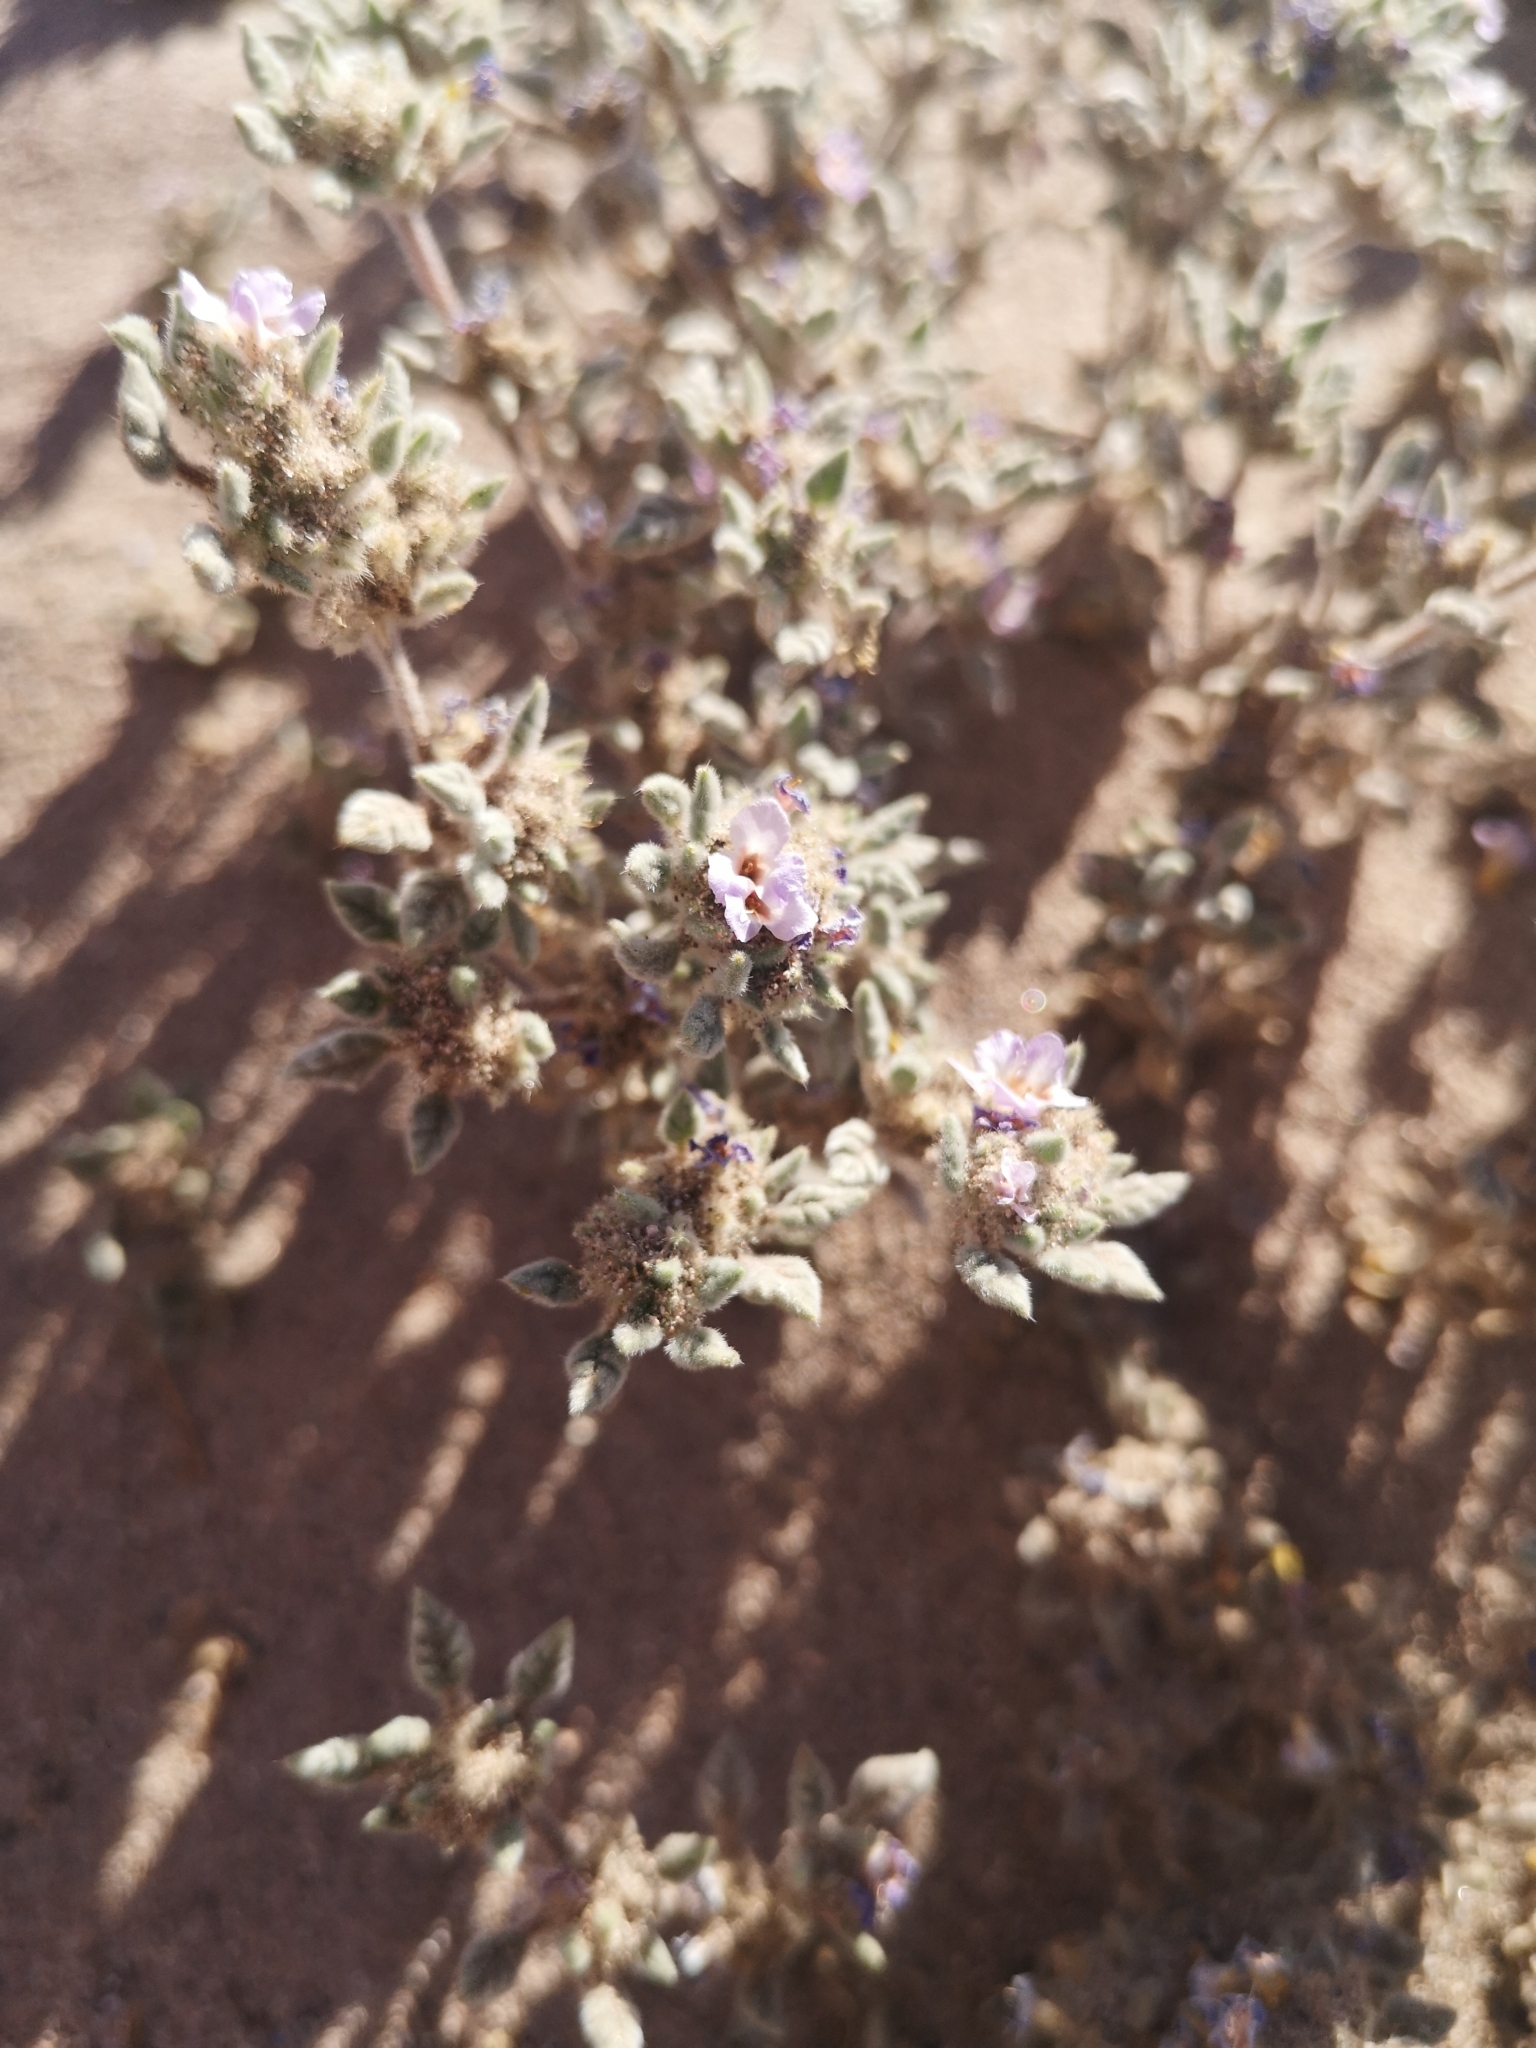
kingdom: Plantae
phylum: Tracheophyta
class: Magnoliopsida
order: Boraginales
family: Ehretiaceae
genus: Tiquilia
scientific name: Tiquilia atacamensis
